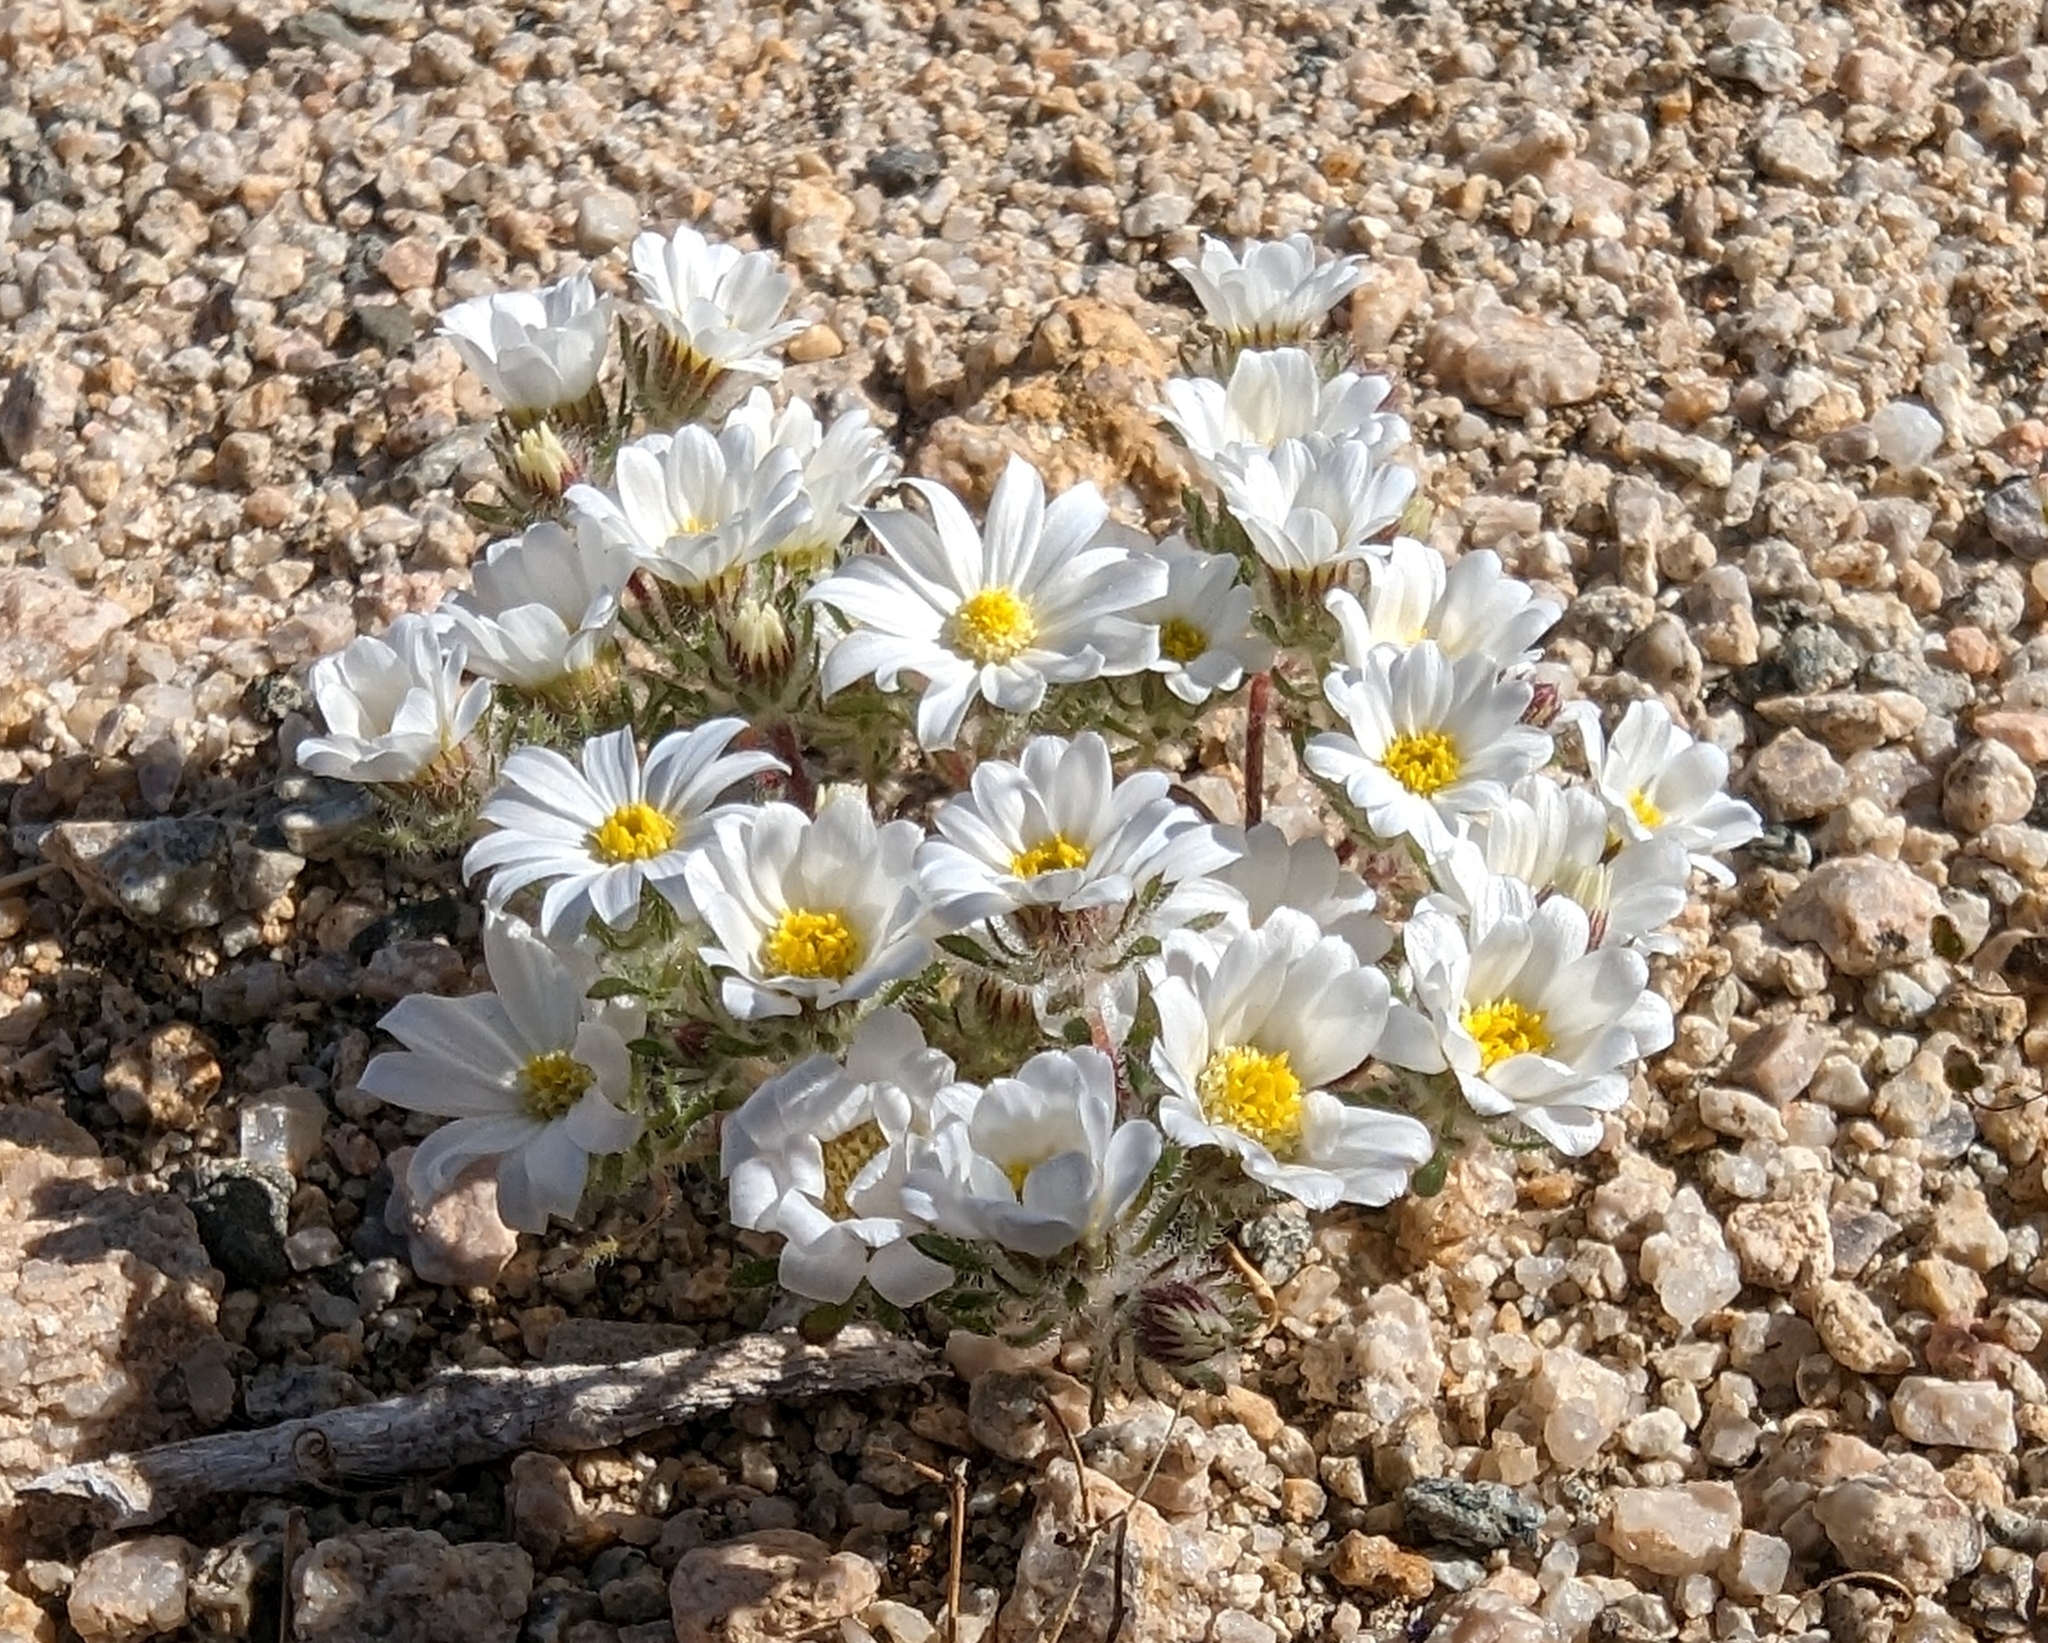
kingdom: Plantae
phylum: Tracheophyta
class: Magnoliopsida
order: Asterales
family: Asteraceae
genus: Monoptilon
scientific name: Monoptilon bellioides
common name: Bristly desertstar
